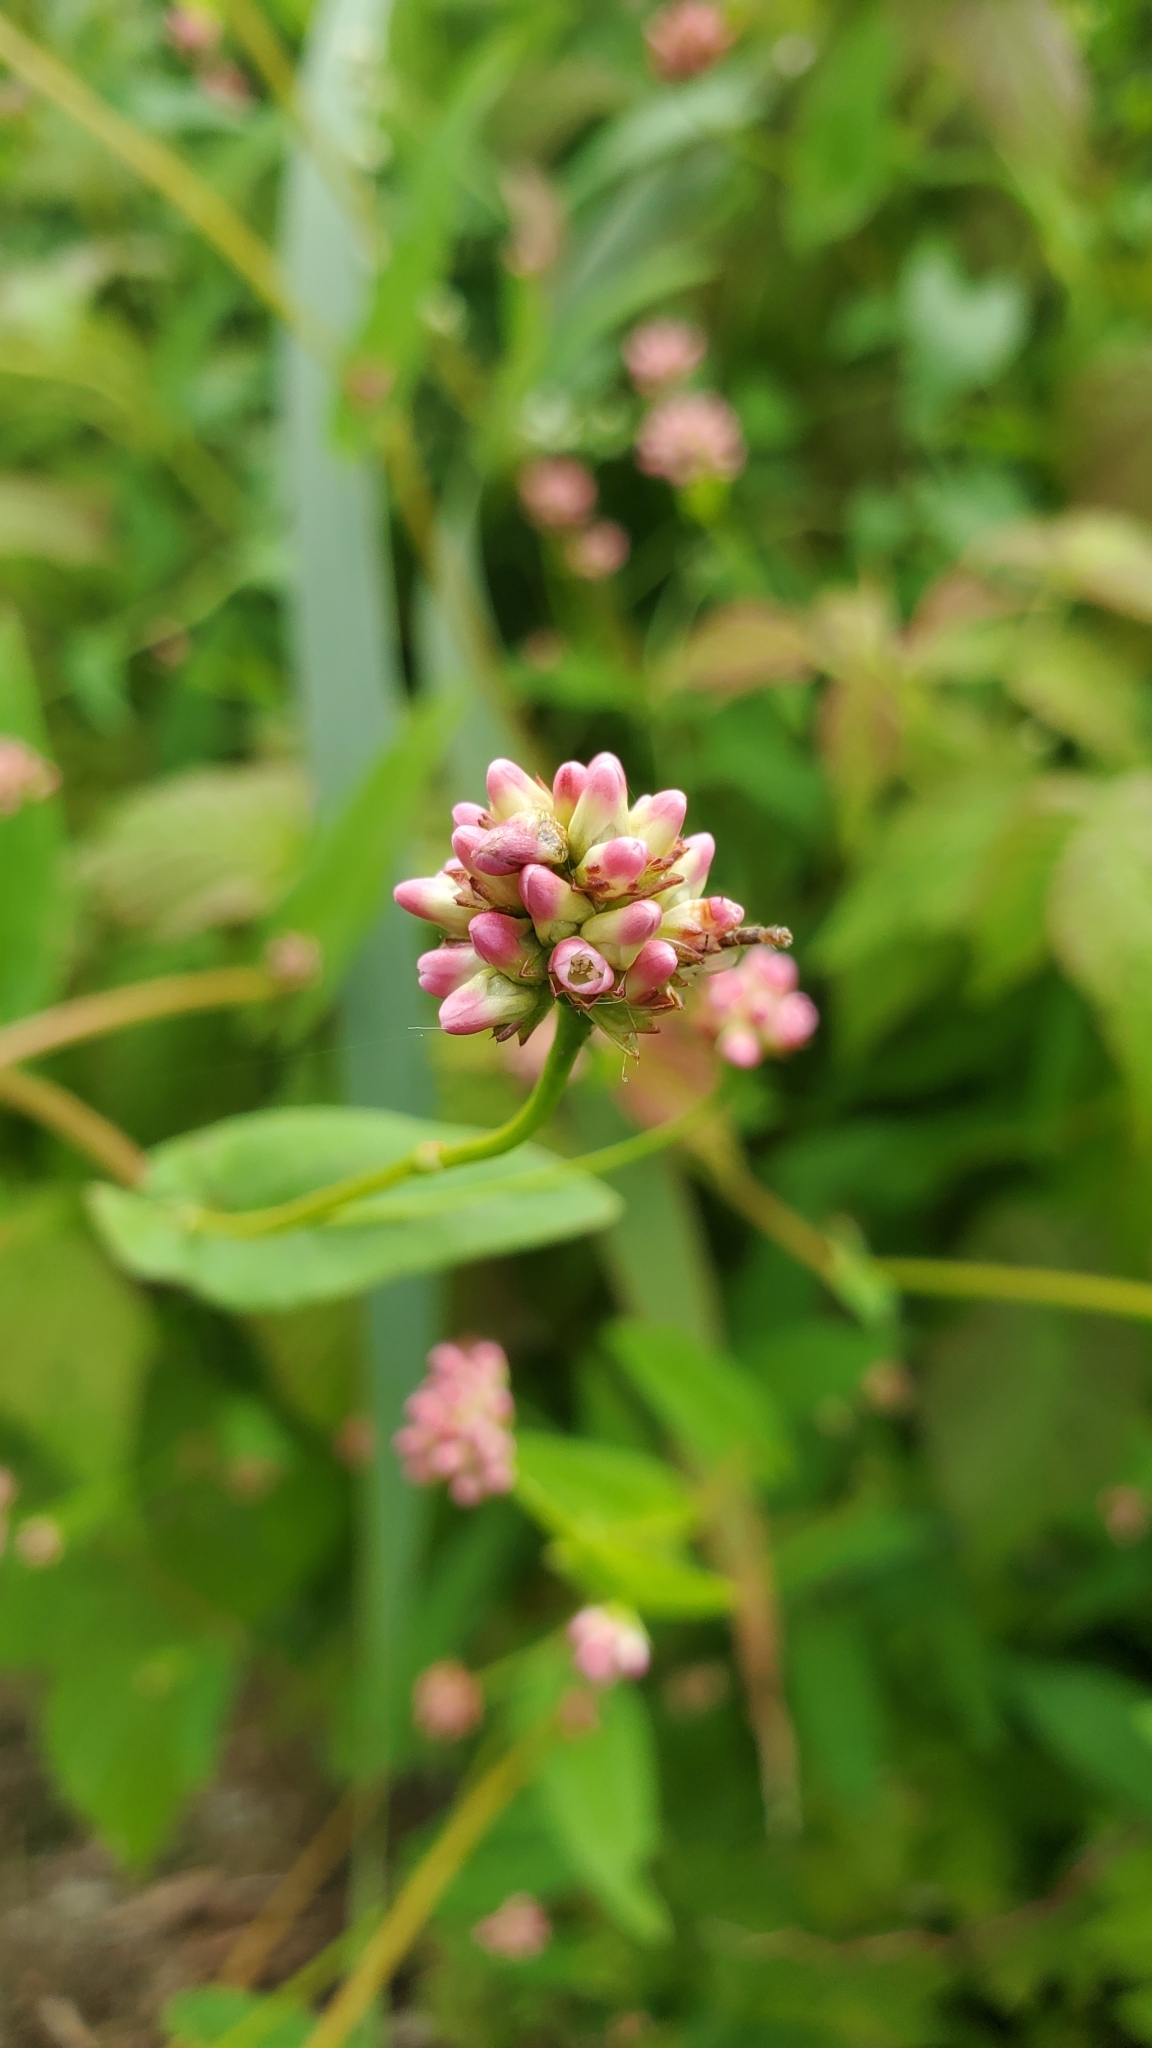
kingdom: Plantae
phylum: Tracheophyta
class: Magnoliopsida
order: Caryophyllales
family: Polygonaceae
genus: Persicaria
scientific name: Persicaria sagittata
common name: American tearthumb
